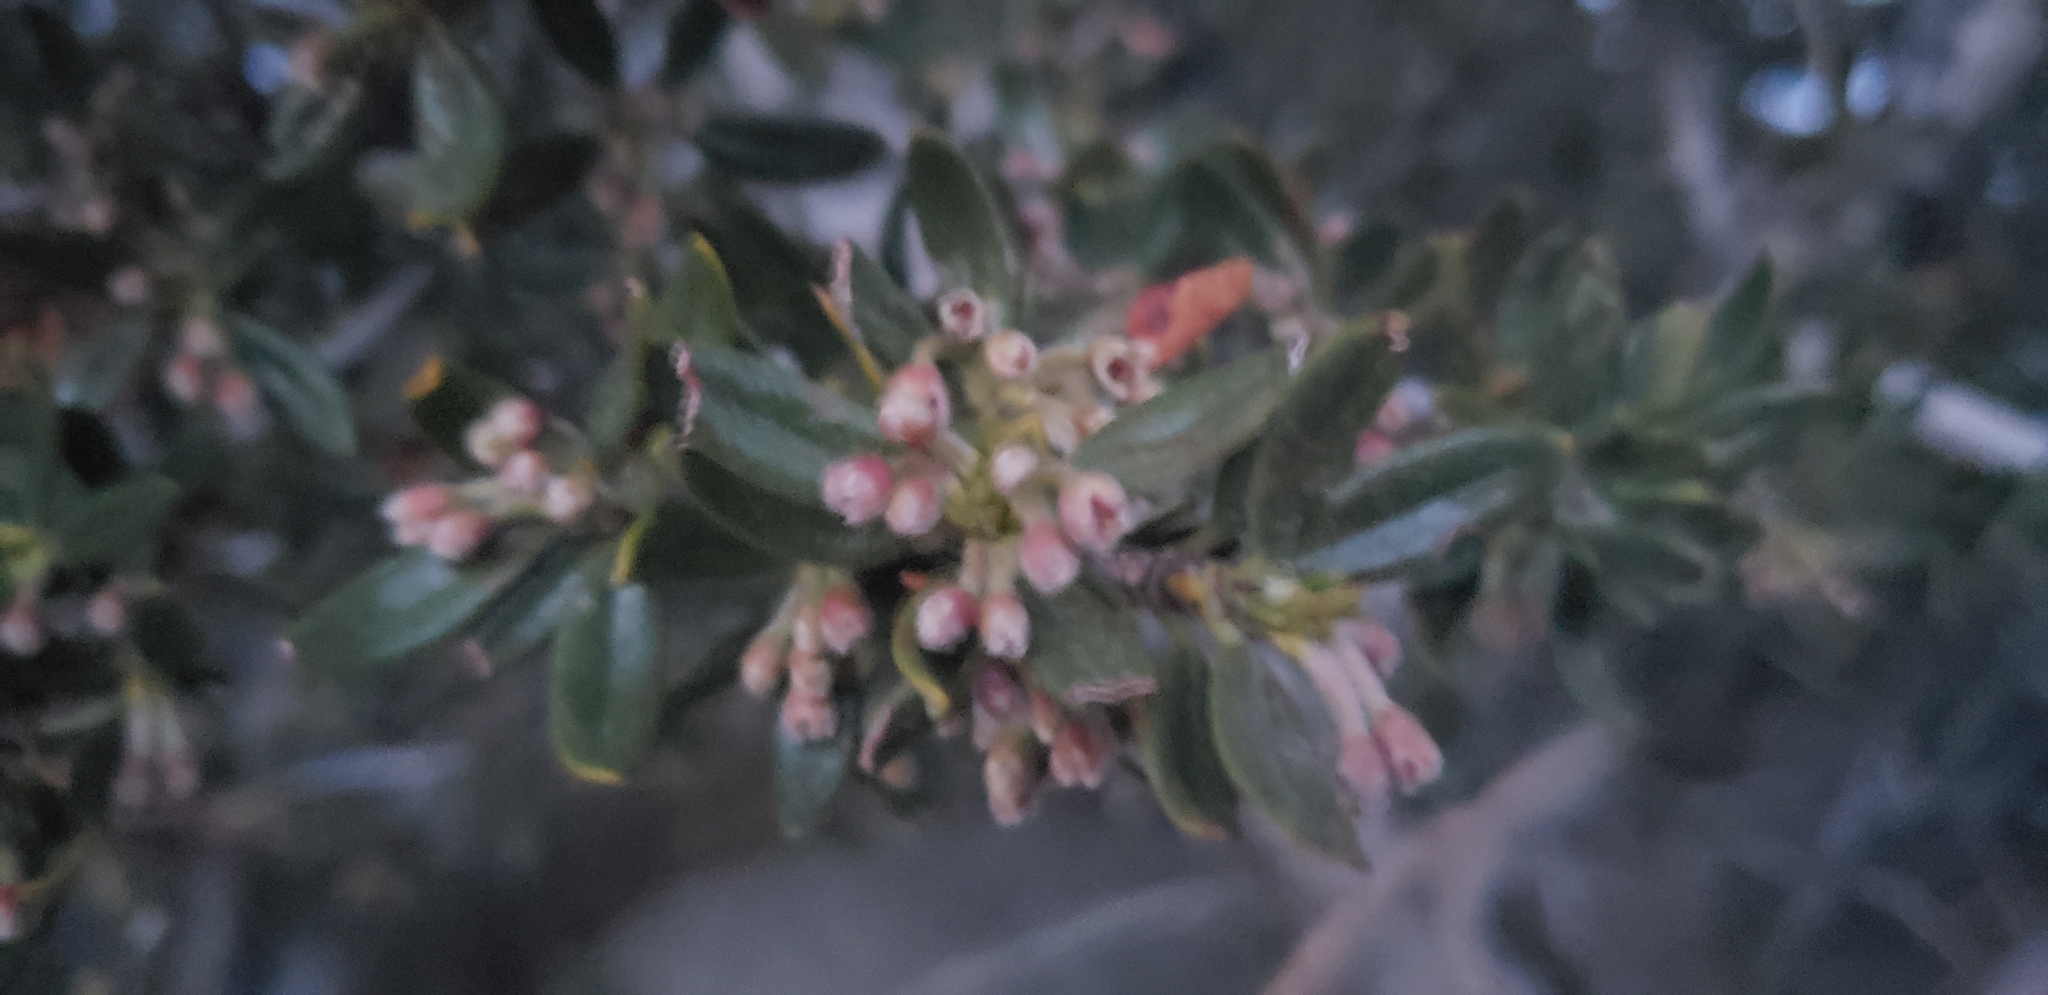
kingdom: Plantae
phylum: Tracheophyta
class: Magnoliopsida
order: Rosales
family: Rosaceae
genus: Cercocarpus
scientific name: Cercocarpus ledifolius
